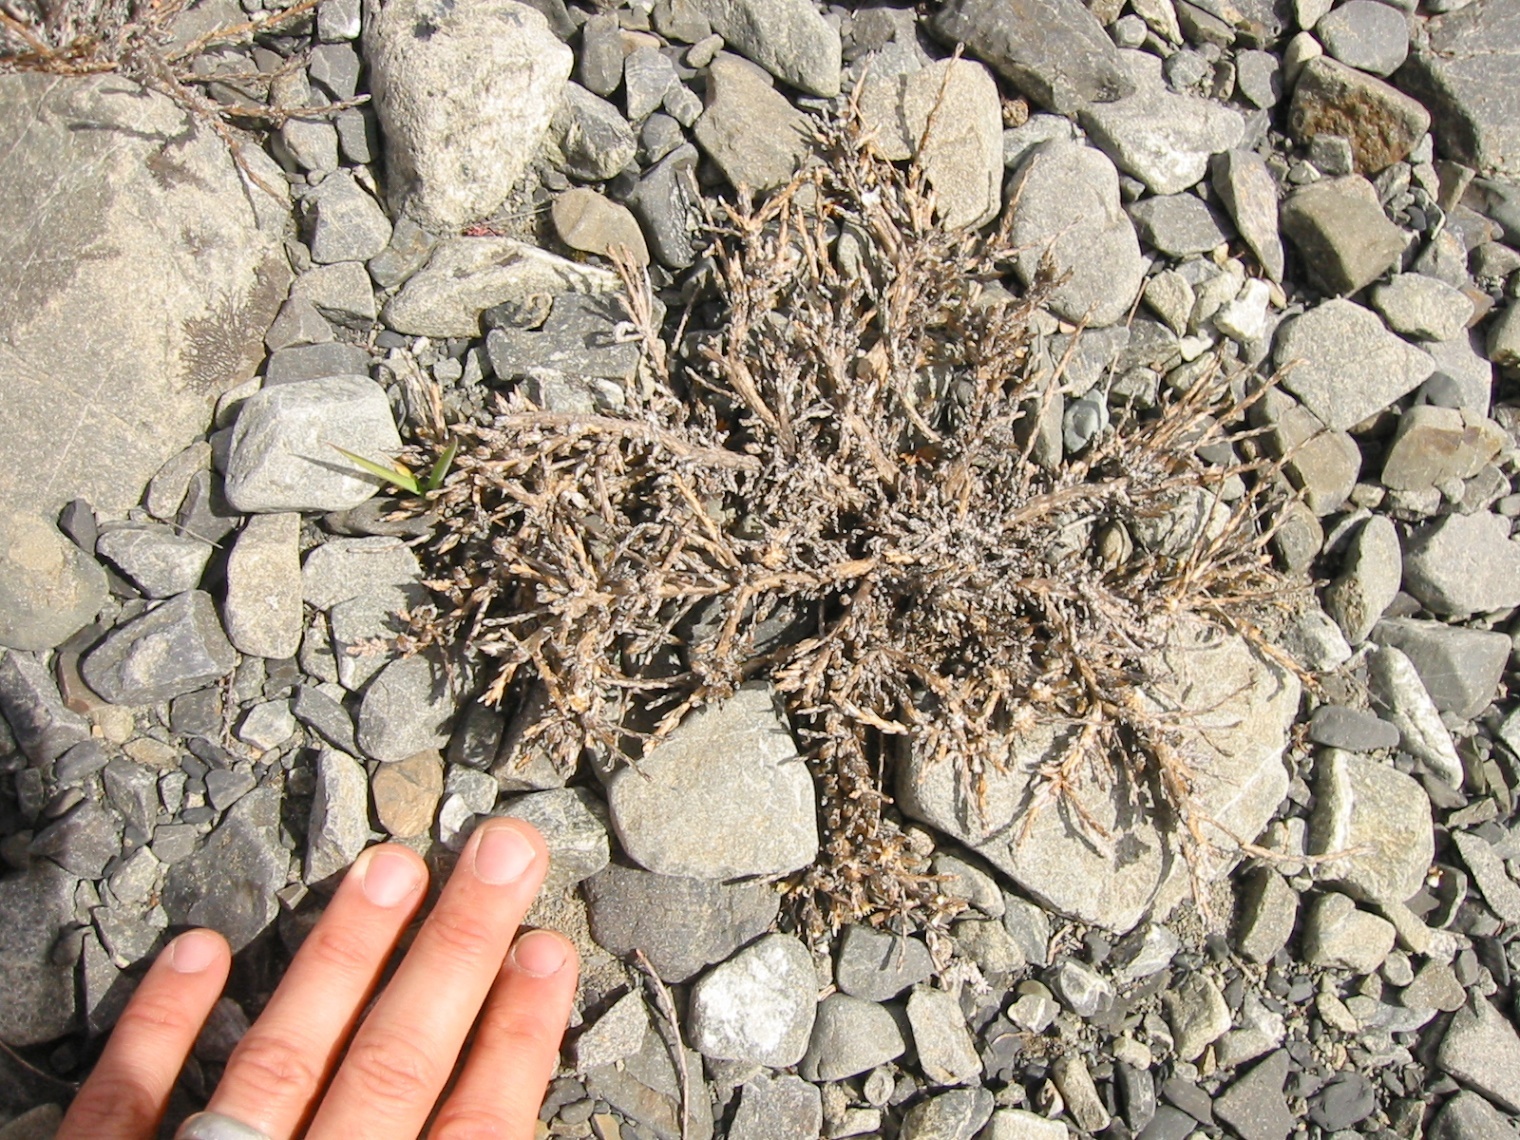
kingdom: Plantae
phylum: Tracheophyta
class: Magnoliopsida
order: Asterales
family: Asteraceae
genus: Ozothamnus
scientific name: Ozothamnus depressus
